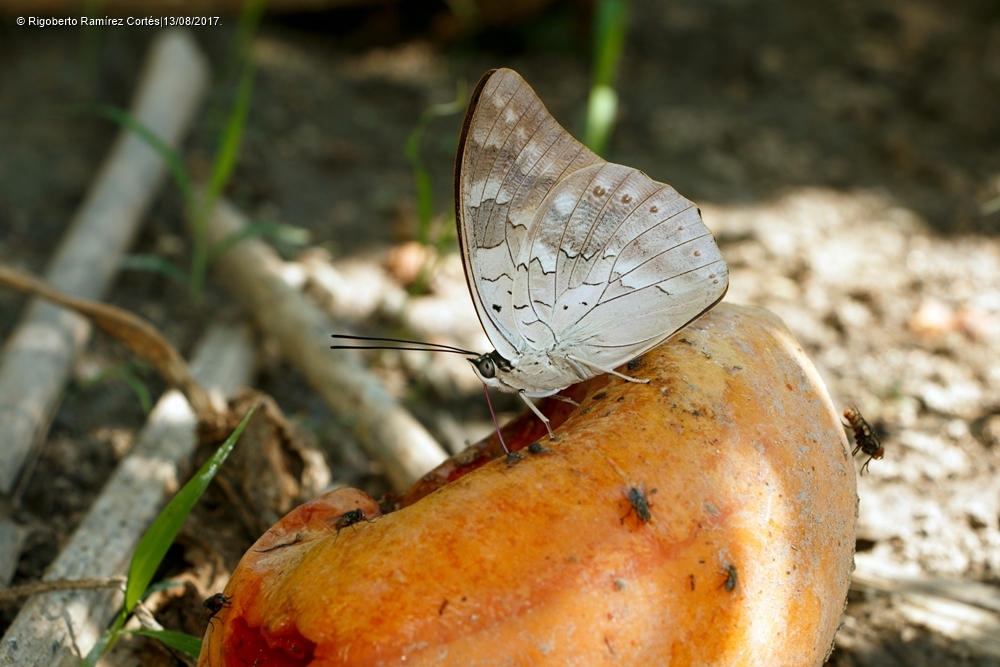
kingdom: Animalia
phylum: Arthropoda
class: Insecta
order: Lepidoptera
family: Nymphalidae
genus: Prepona
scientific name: Prepona Archaeoprepona demophoon
